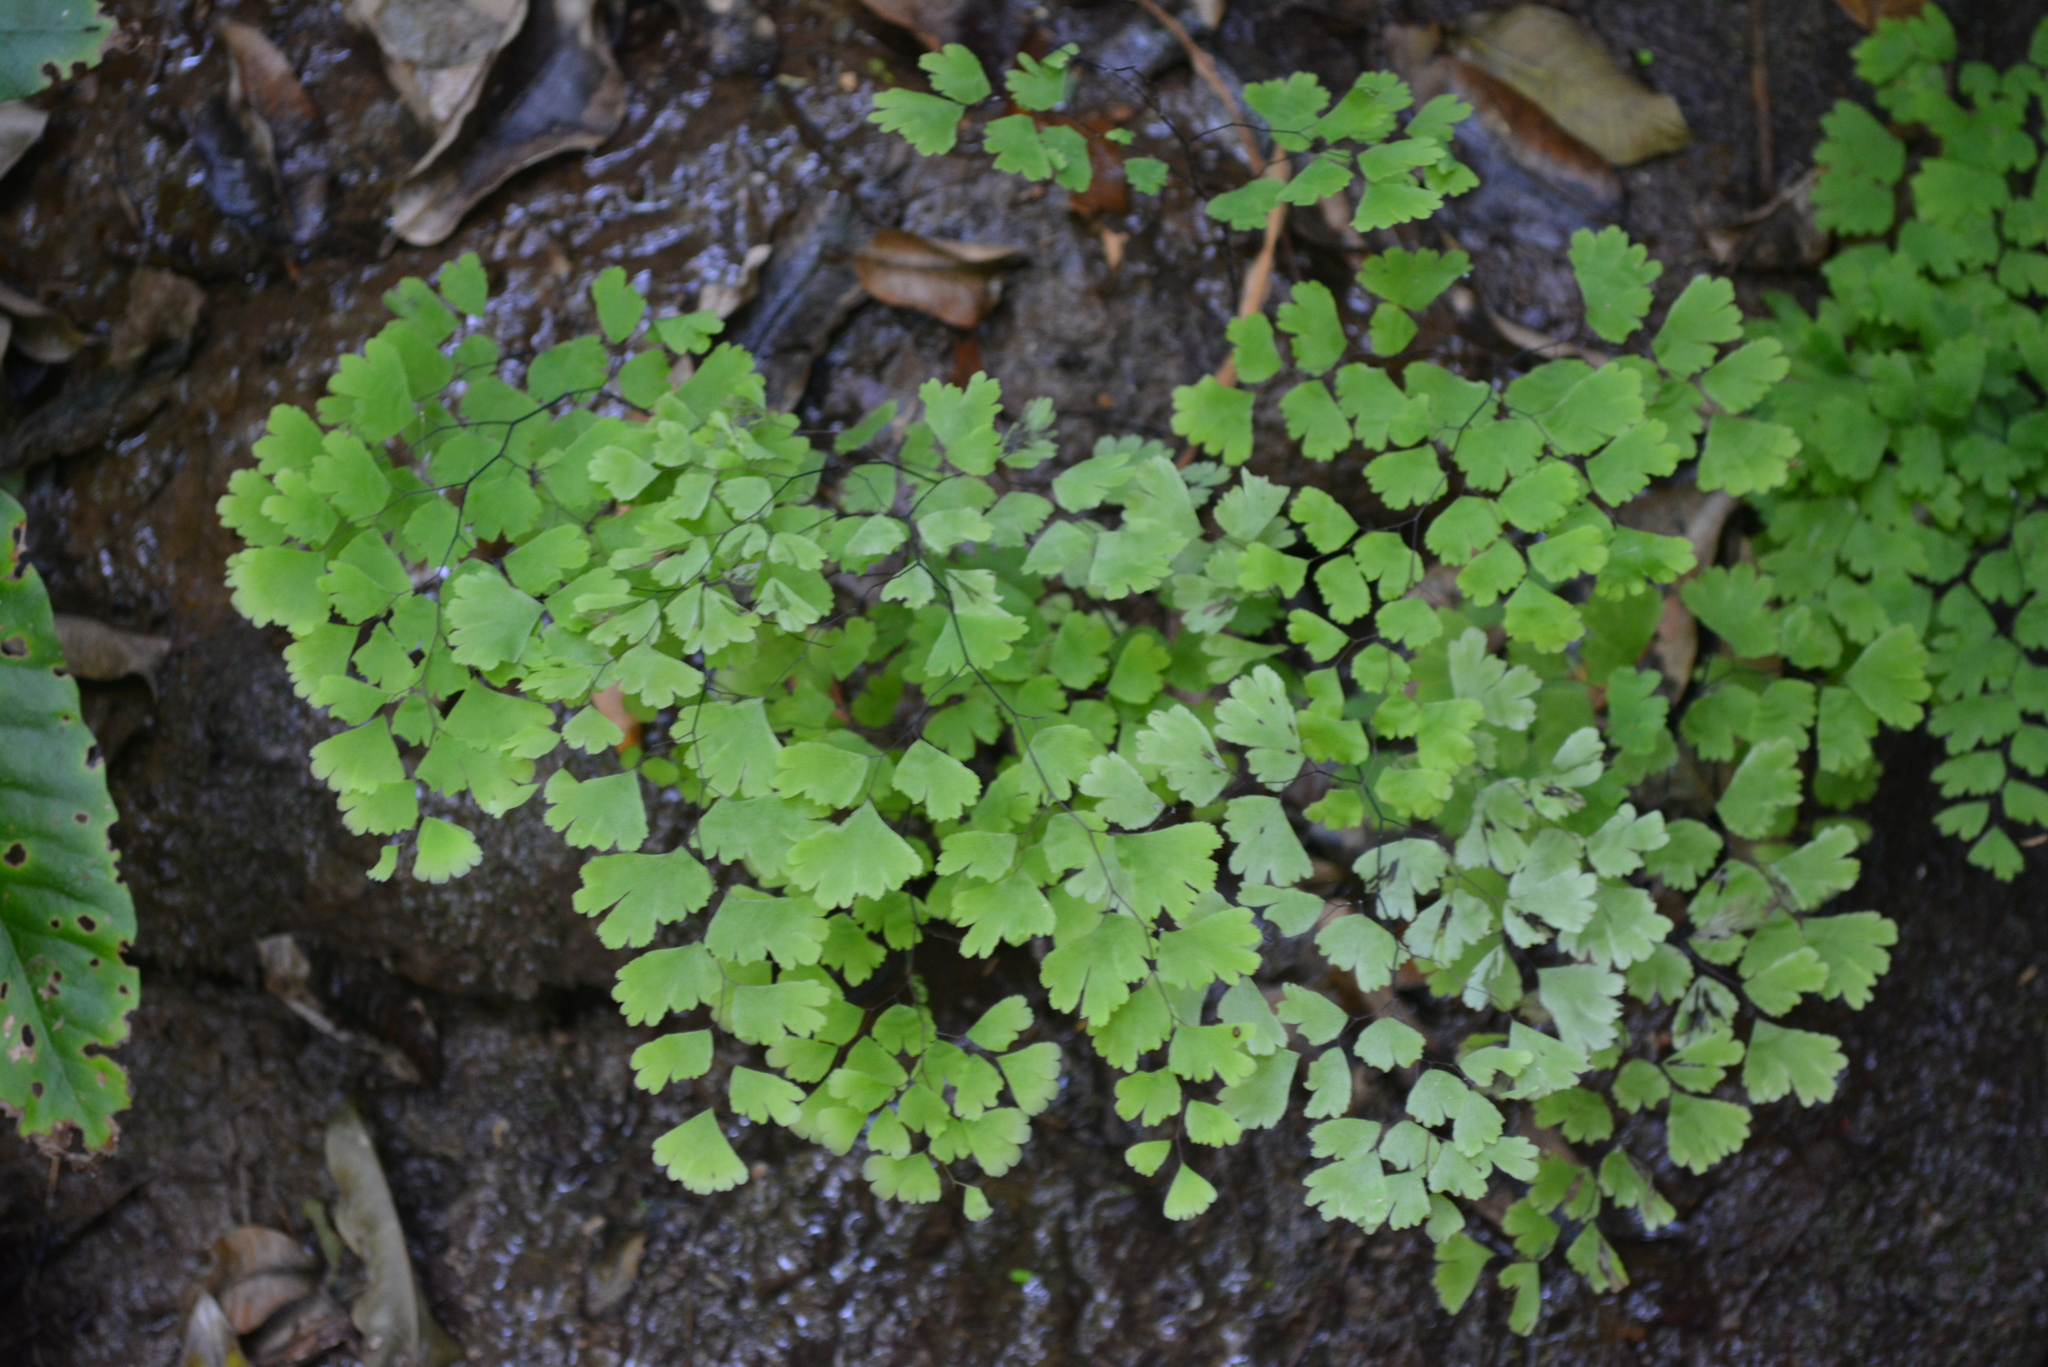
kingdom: Plantae
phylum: Tracheophyta
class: Polypodiopsida
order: Polypodiales
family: Pteridaceae
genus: Adiantum
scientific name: Adiantum capillus-veneris
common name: Maidenhair fern
